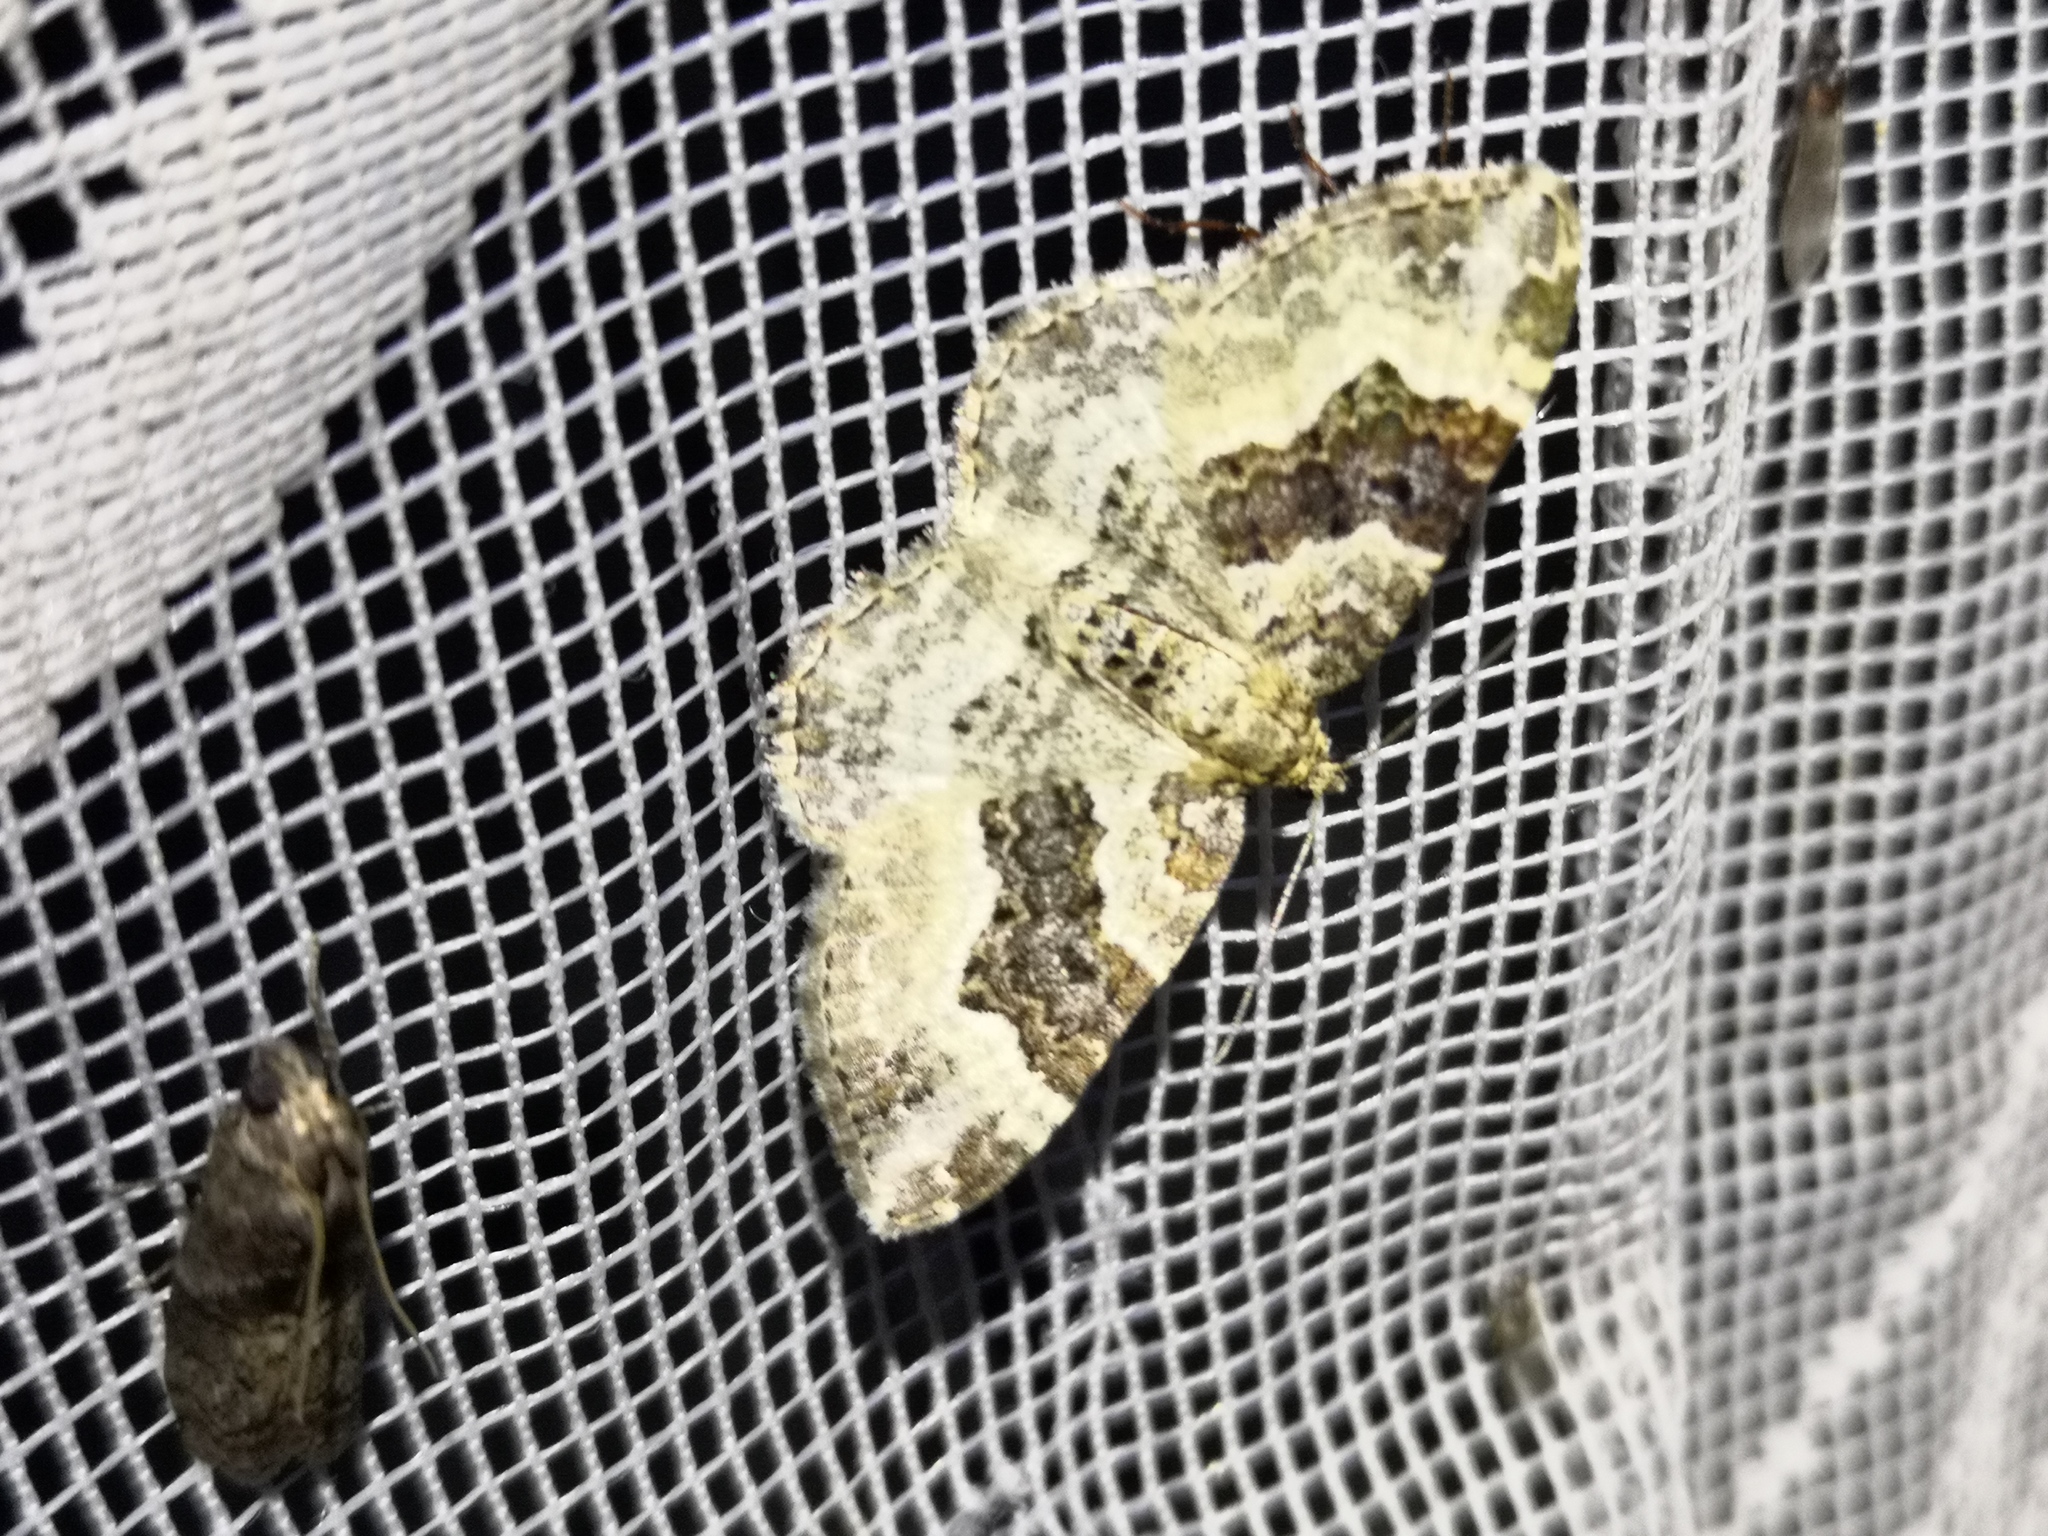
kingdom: Animalia
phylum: Arthropoda
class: Insecta
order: Lepidoptera
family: Geometridae
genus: Epirrhoe
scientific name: Epirrhoe alternata
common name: Common carpet
